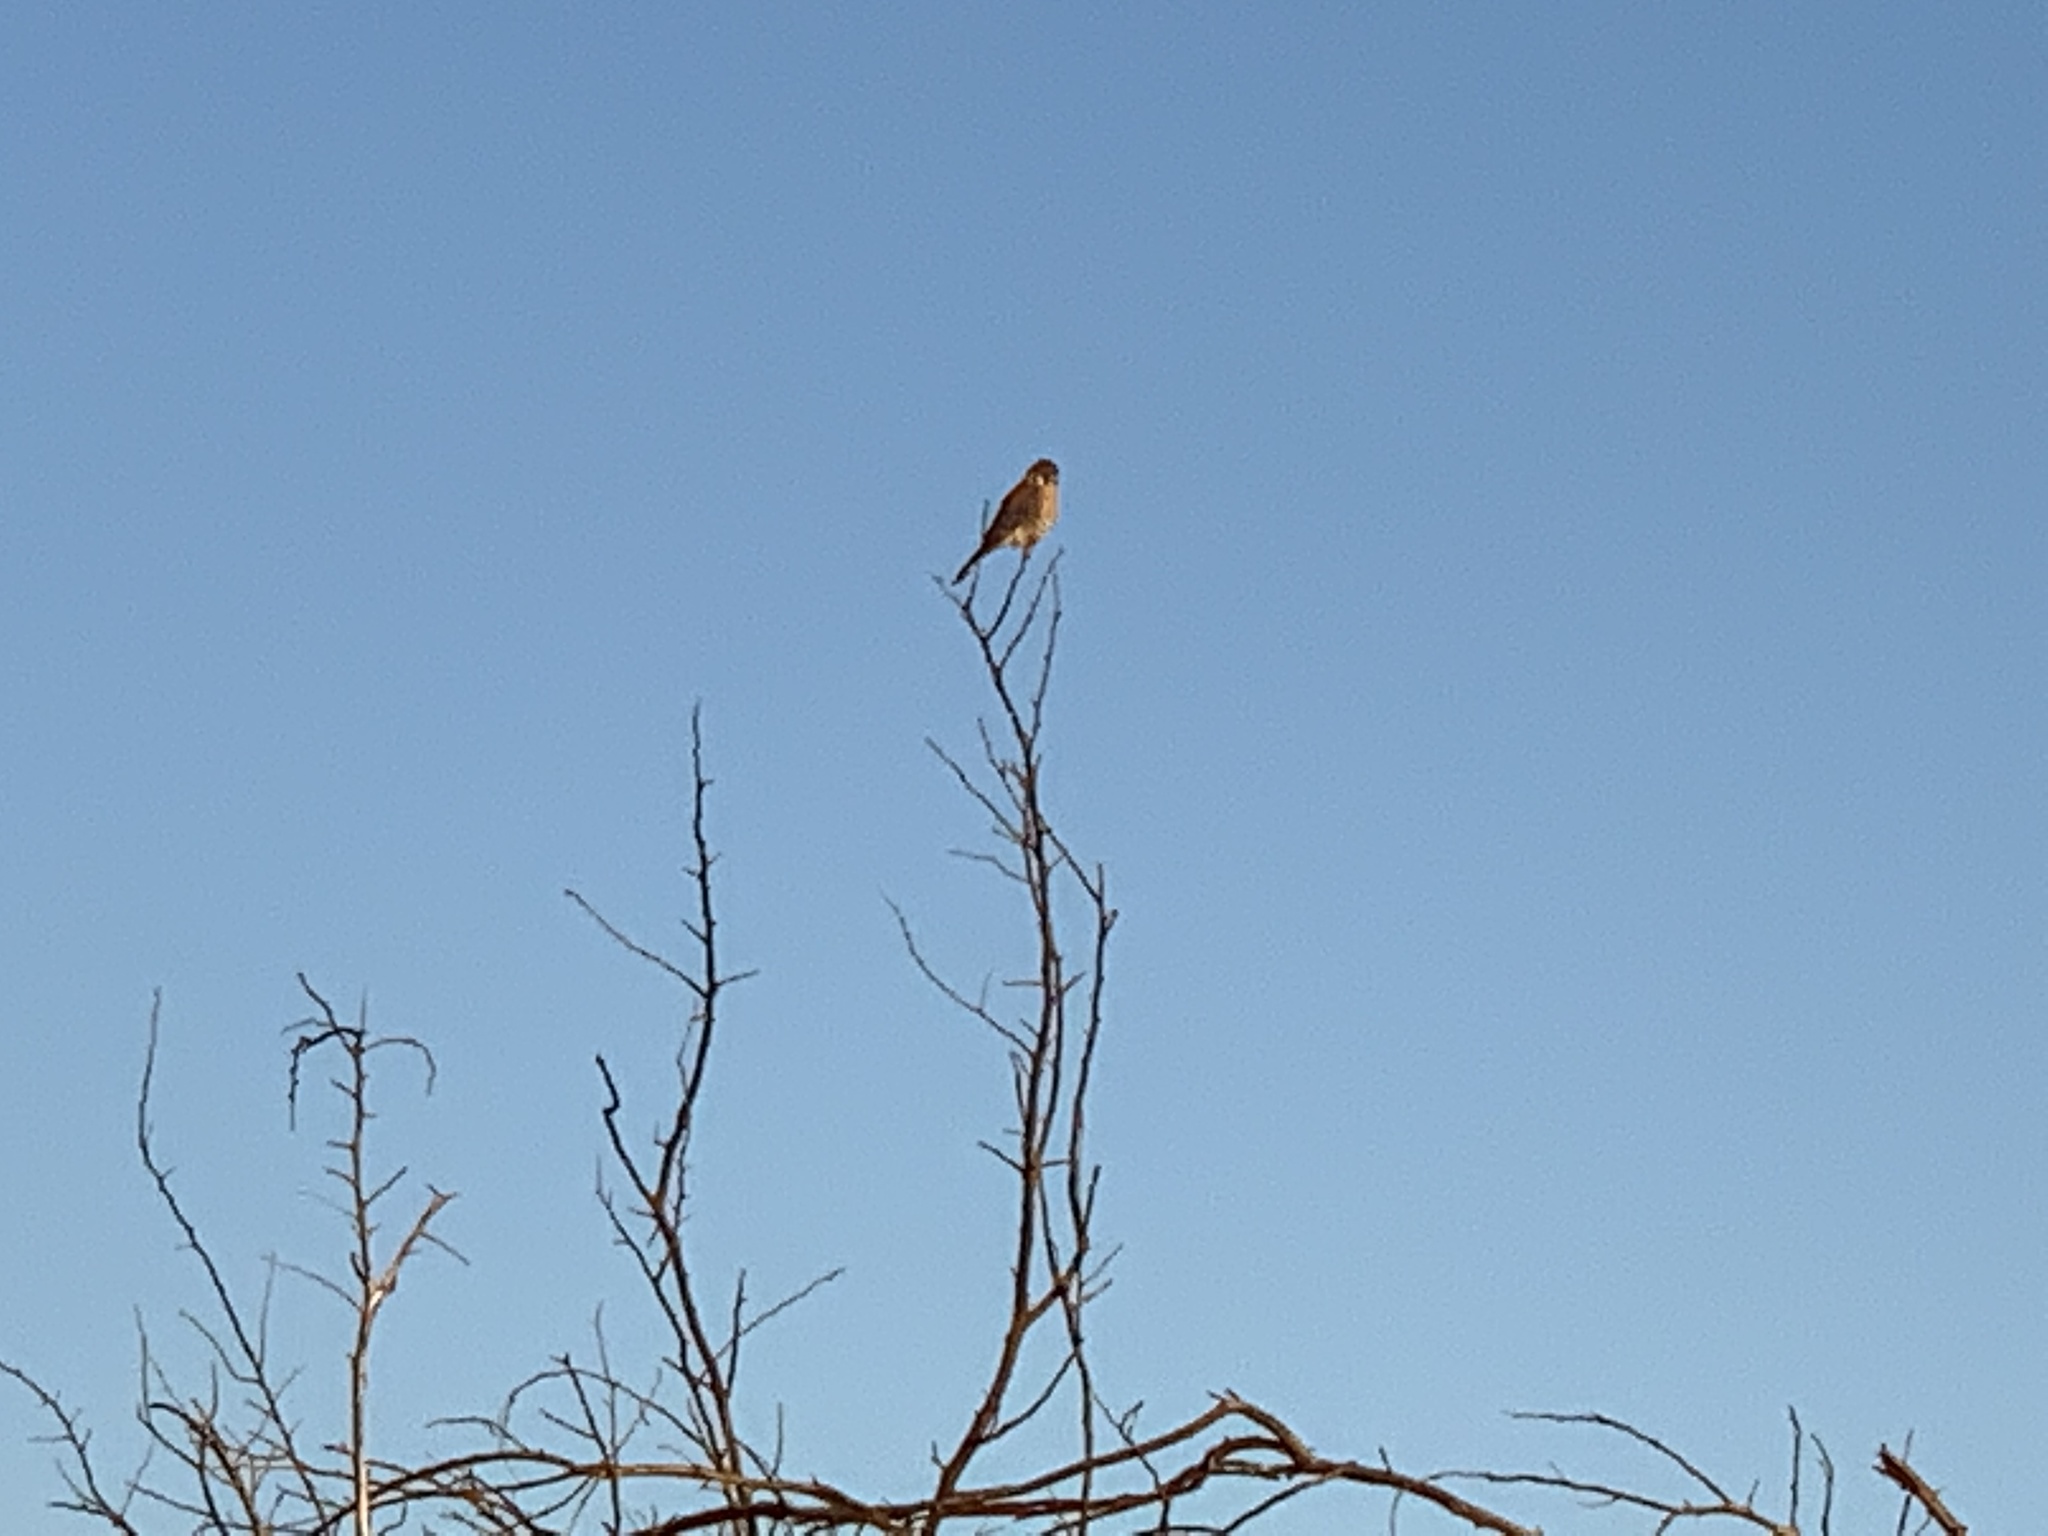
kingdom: Animalia
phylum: Chordata
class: Aves
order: Falconiformes
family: Falconidae
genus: Falco
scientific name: Falco sparverius
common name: American kestrel
